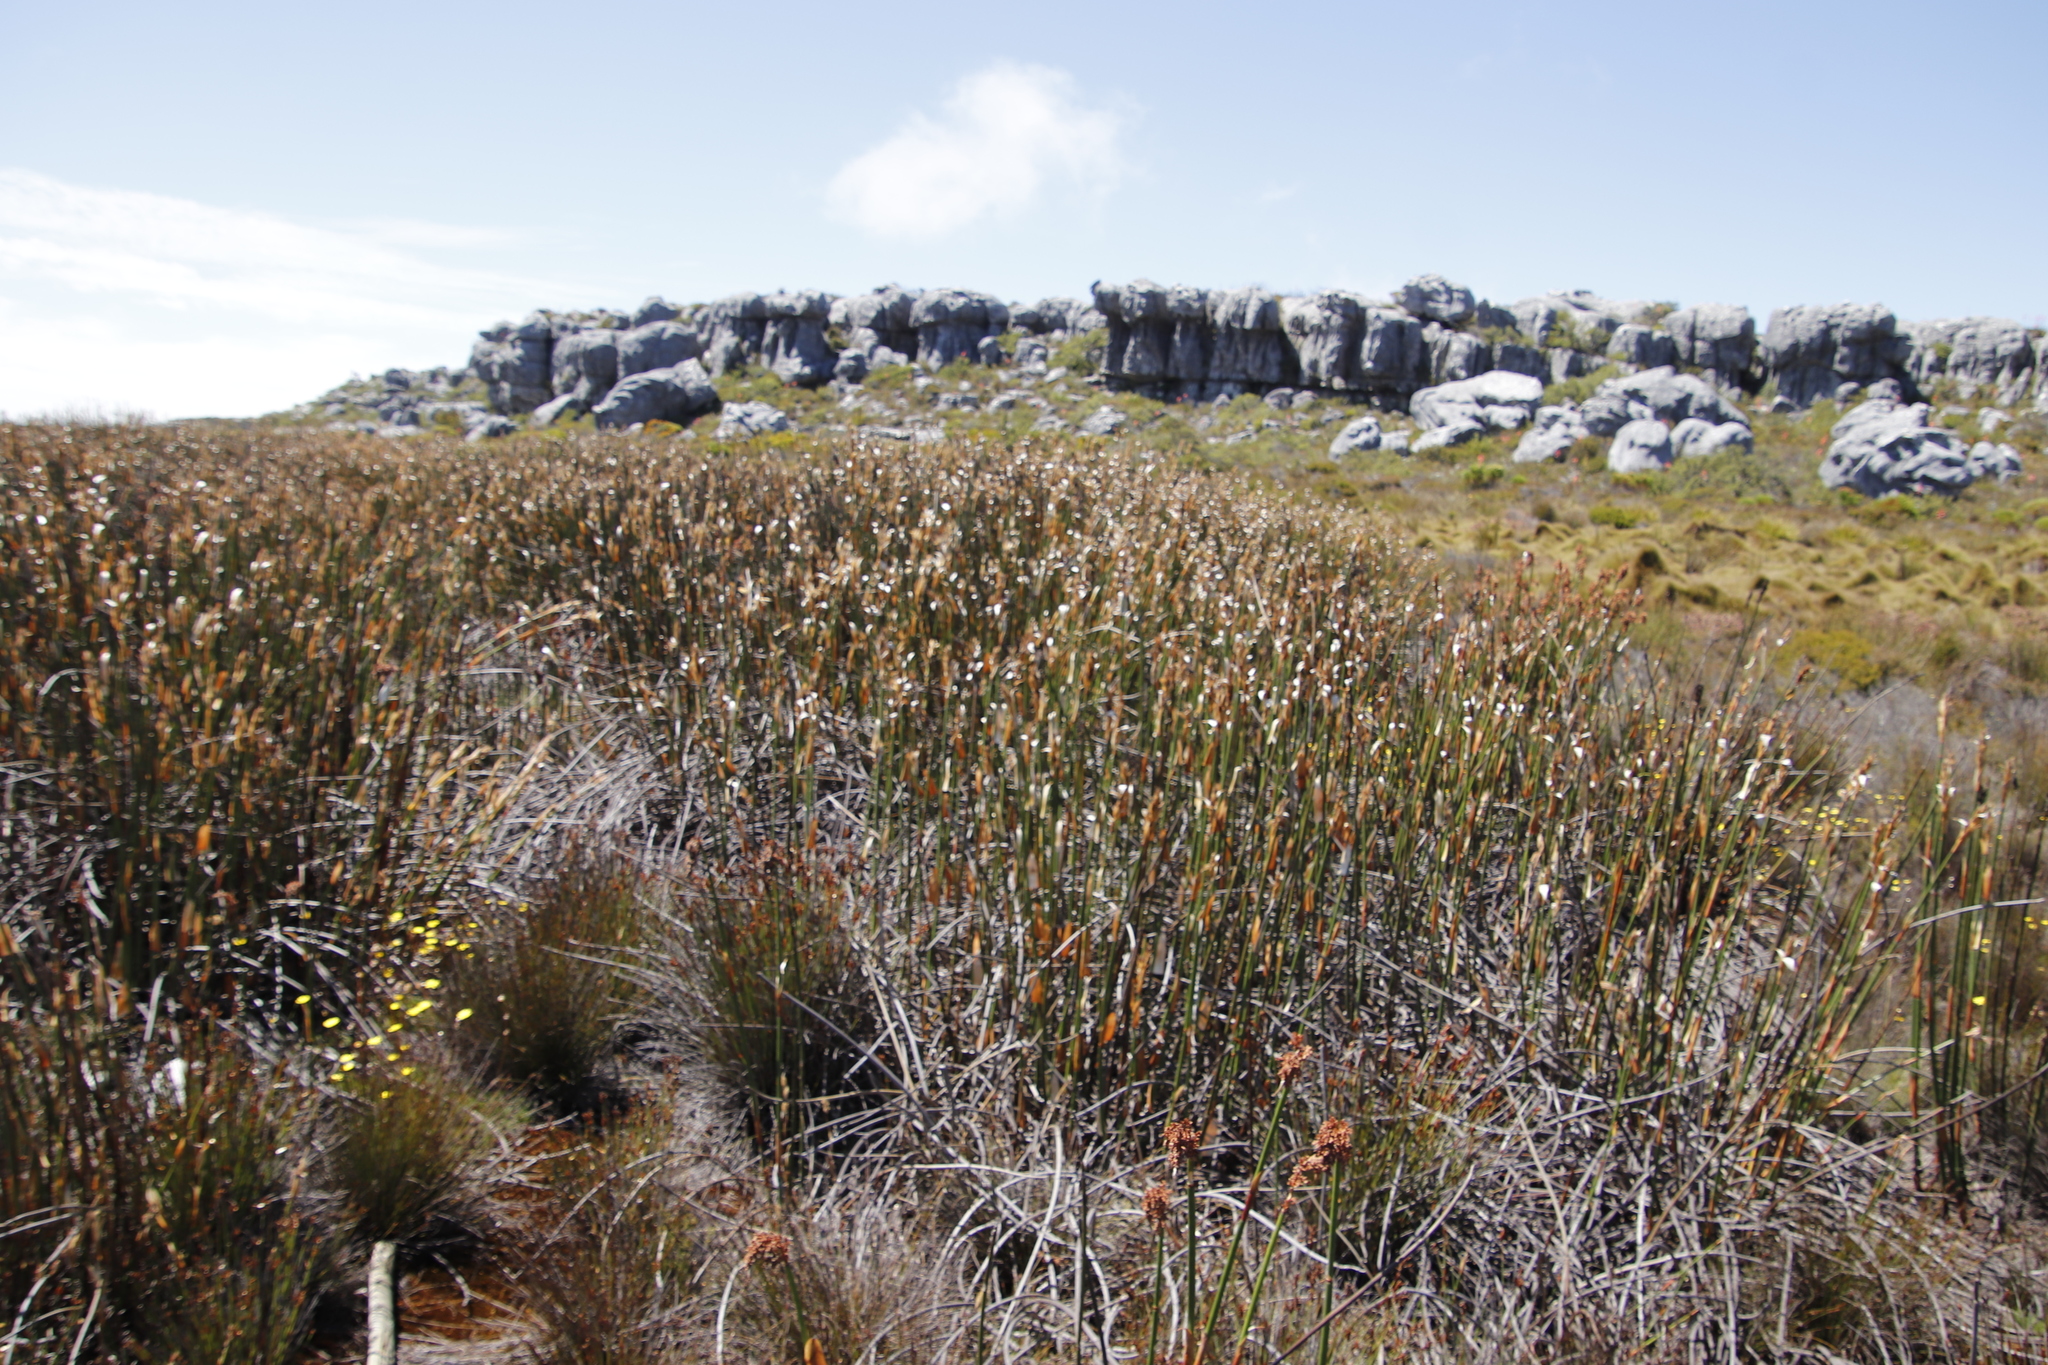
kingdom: Plantae
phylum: Tracheophyta
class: Liliopsida
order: Poales
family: Restionaceae
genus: Elegia
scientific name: Elegia mucronata
